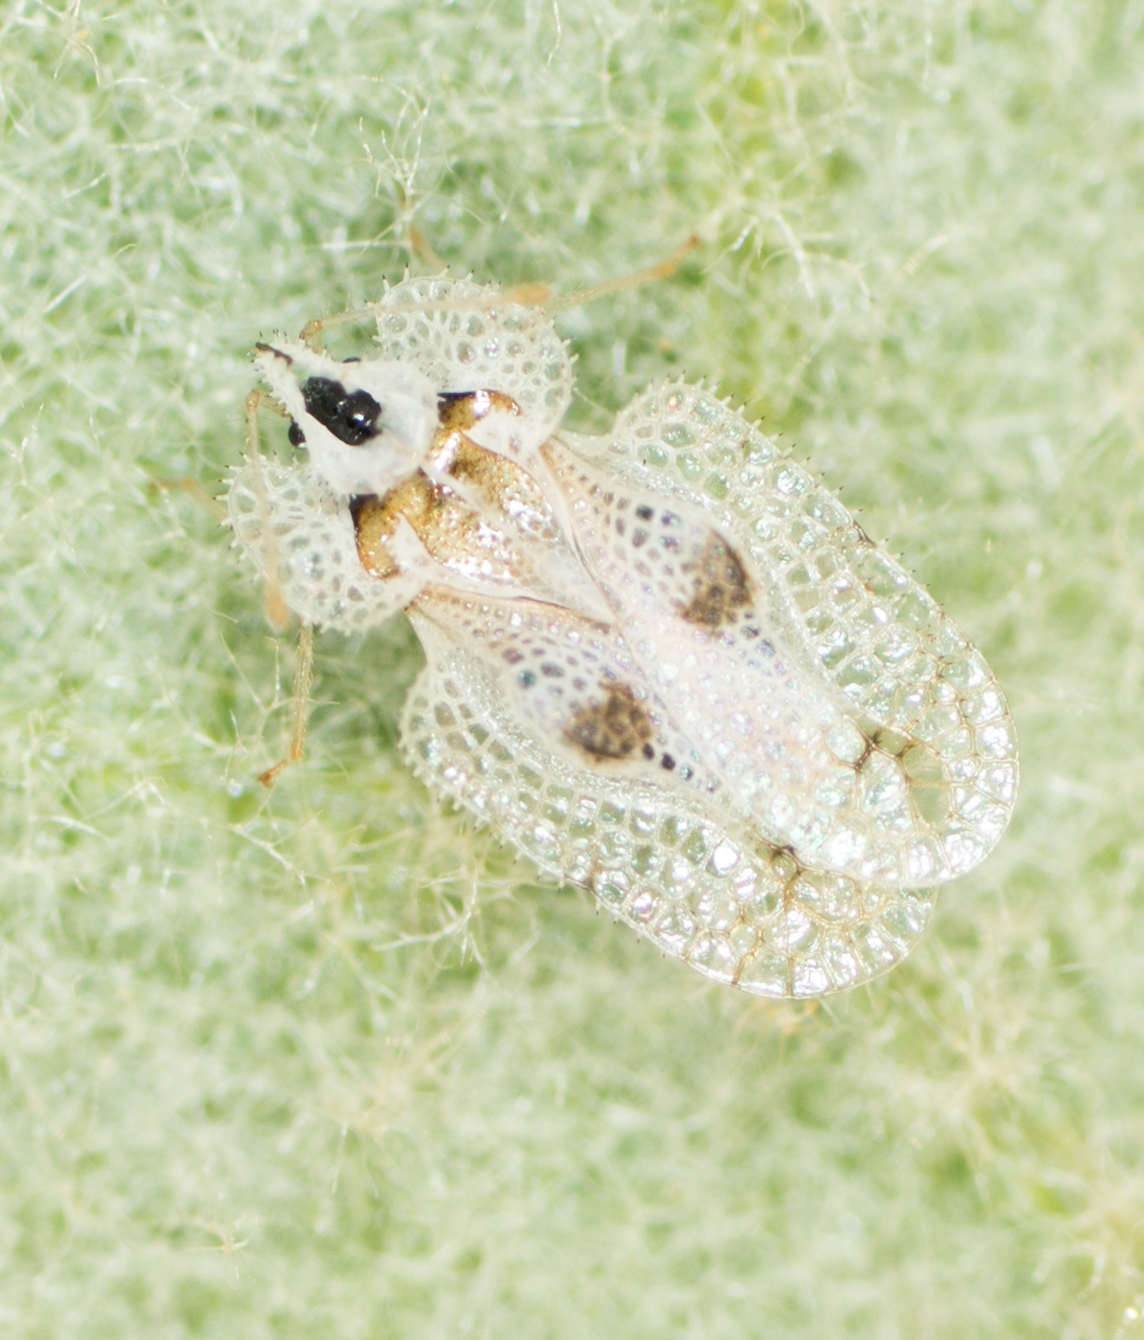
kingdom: Animalia
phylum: Arthropoda
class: Insecta
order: Hemiptera
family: Tingidae
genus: Corythucha
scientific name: Corythucha confraterna
